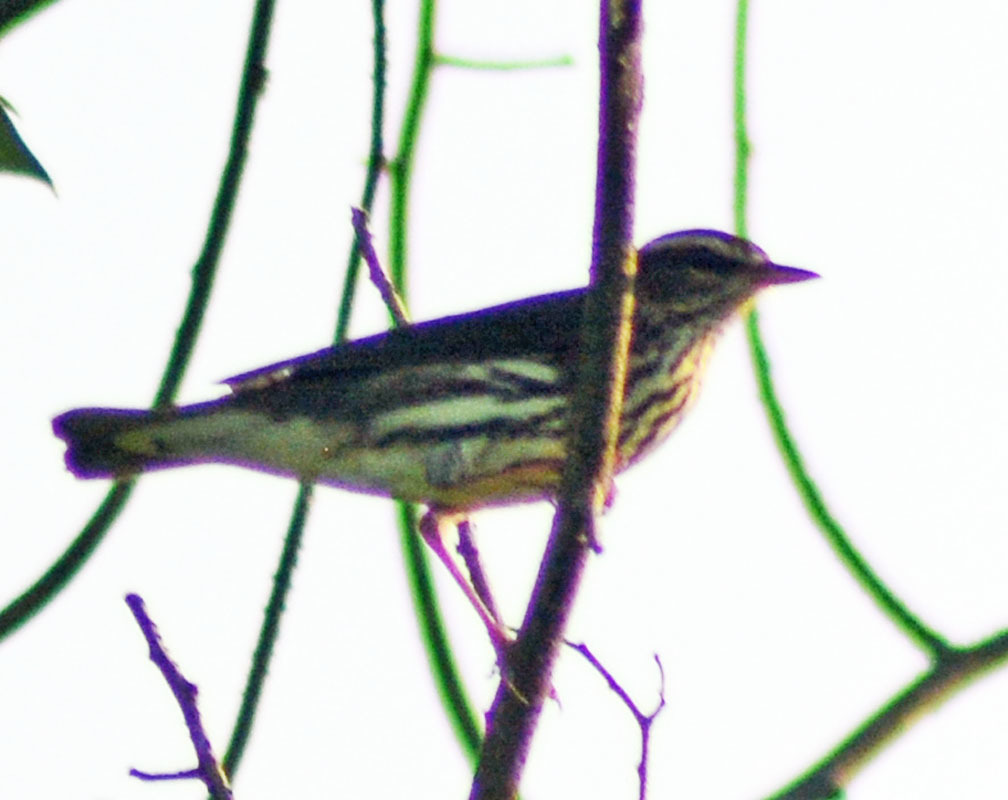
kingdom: Animalia
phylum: Chordata
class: Aves
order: Passeriformes
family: Parulidae
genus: Parkesia
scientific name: Parkesia noveboracensis
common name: Northern waterthrush
